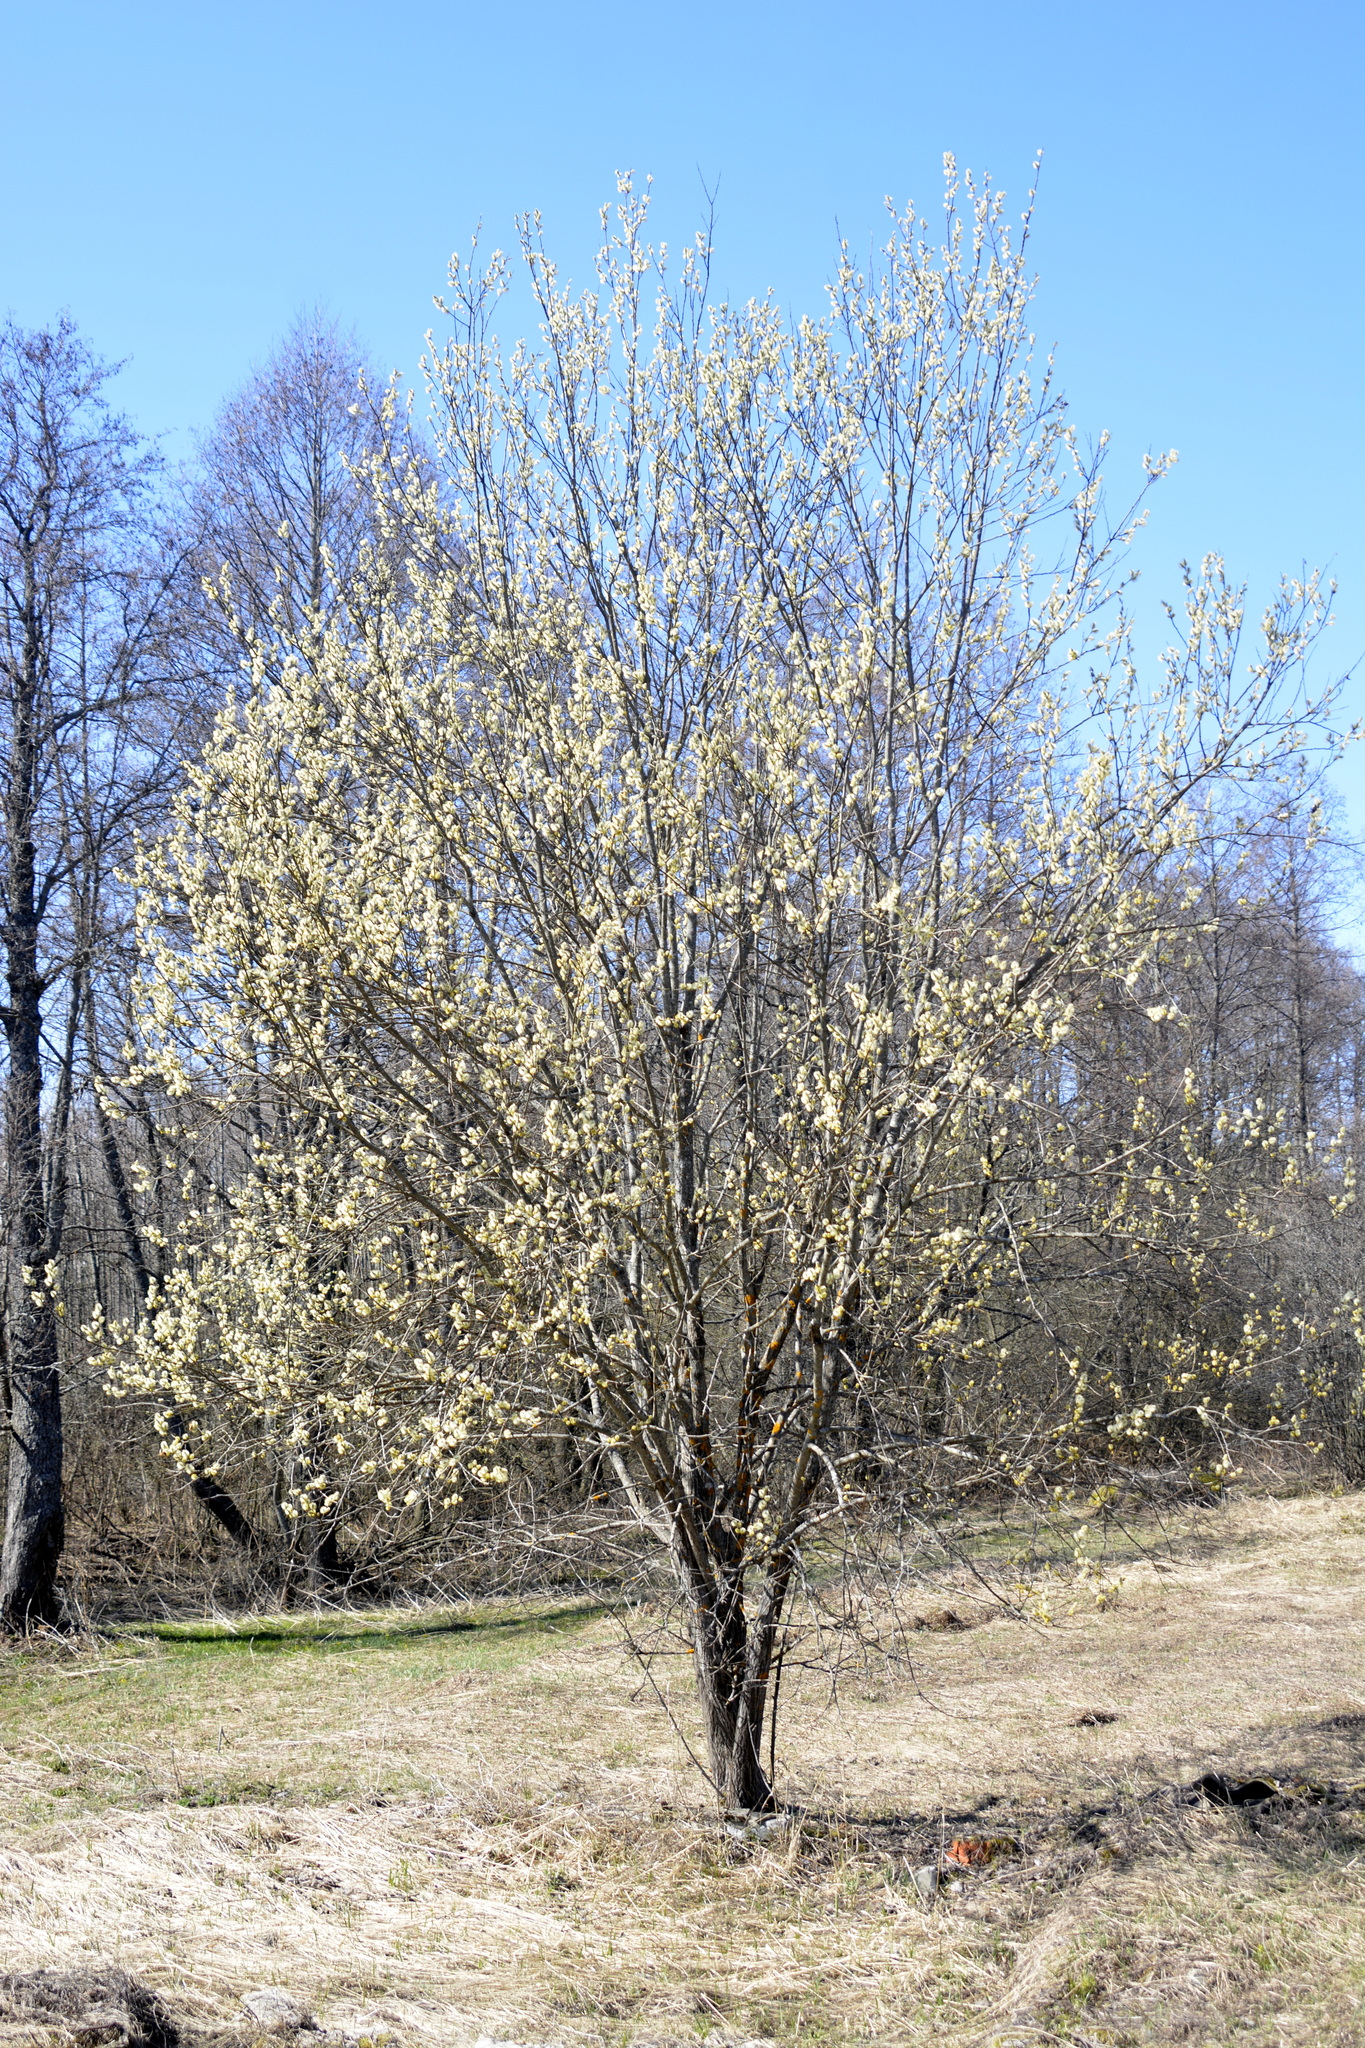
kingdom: Plantae
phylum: Tracheophyta
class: Magnoliopsida
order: Malpighiales
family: Salicaceae
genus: Salix
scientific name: Salix caprea
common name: Goat willow
